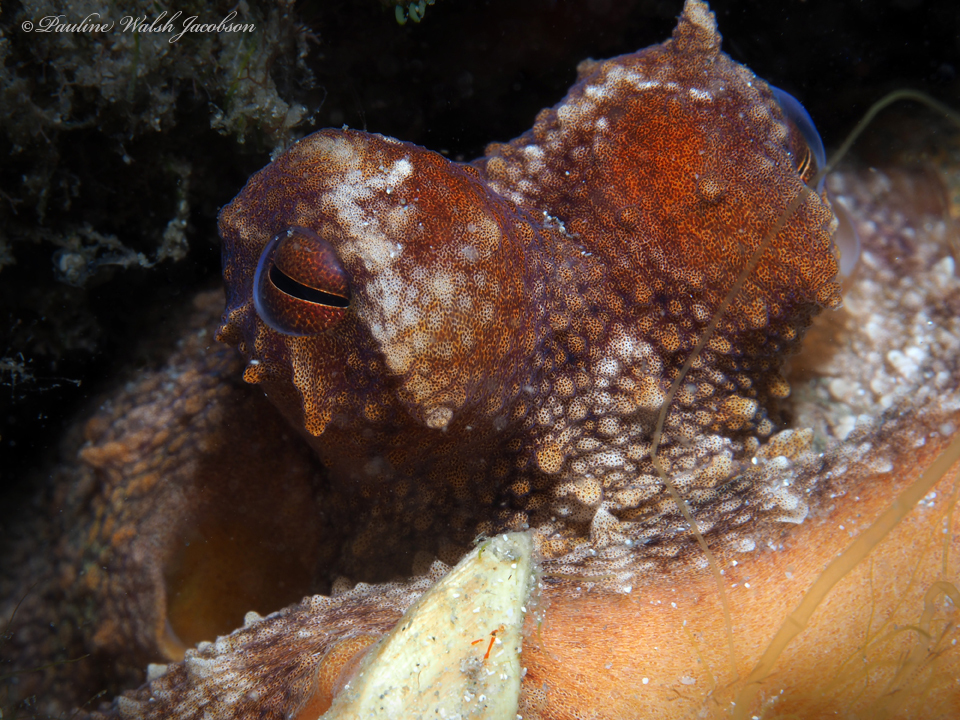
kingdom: Animalia
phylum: Mollusca
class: Cephalopoda
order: Octopoda
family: Octopodidae
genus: Octopus
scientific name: Octopus americanus
